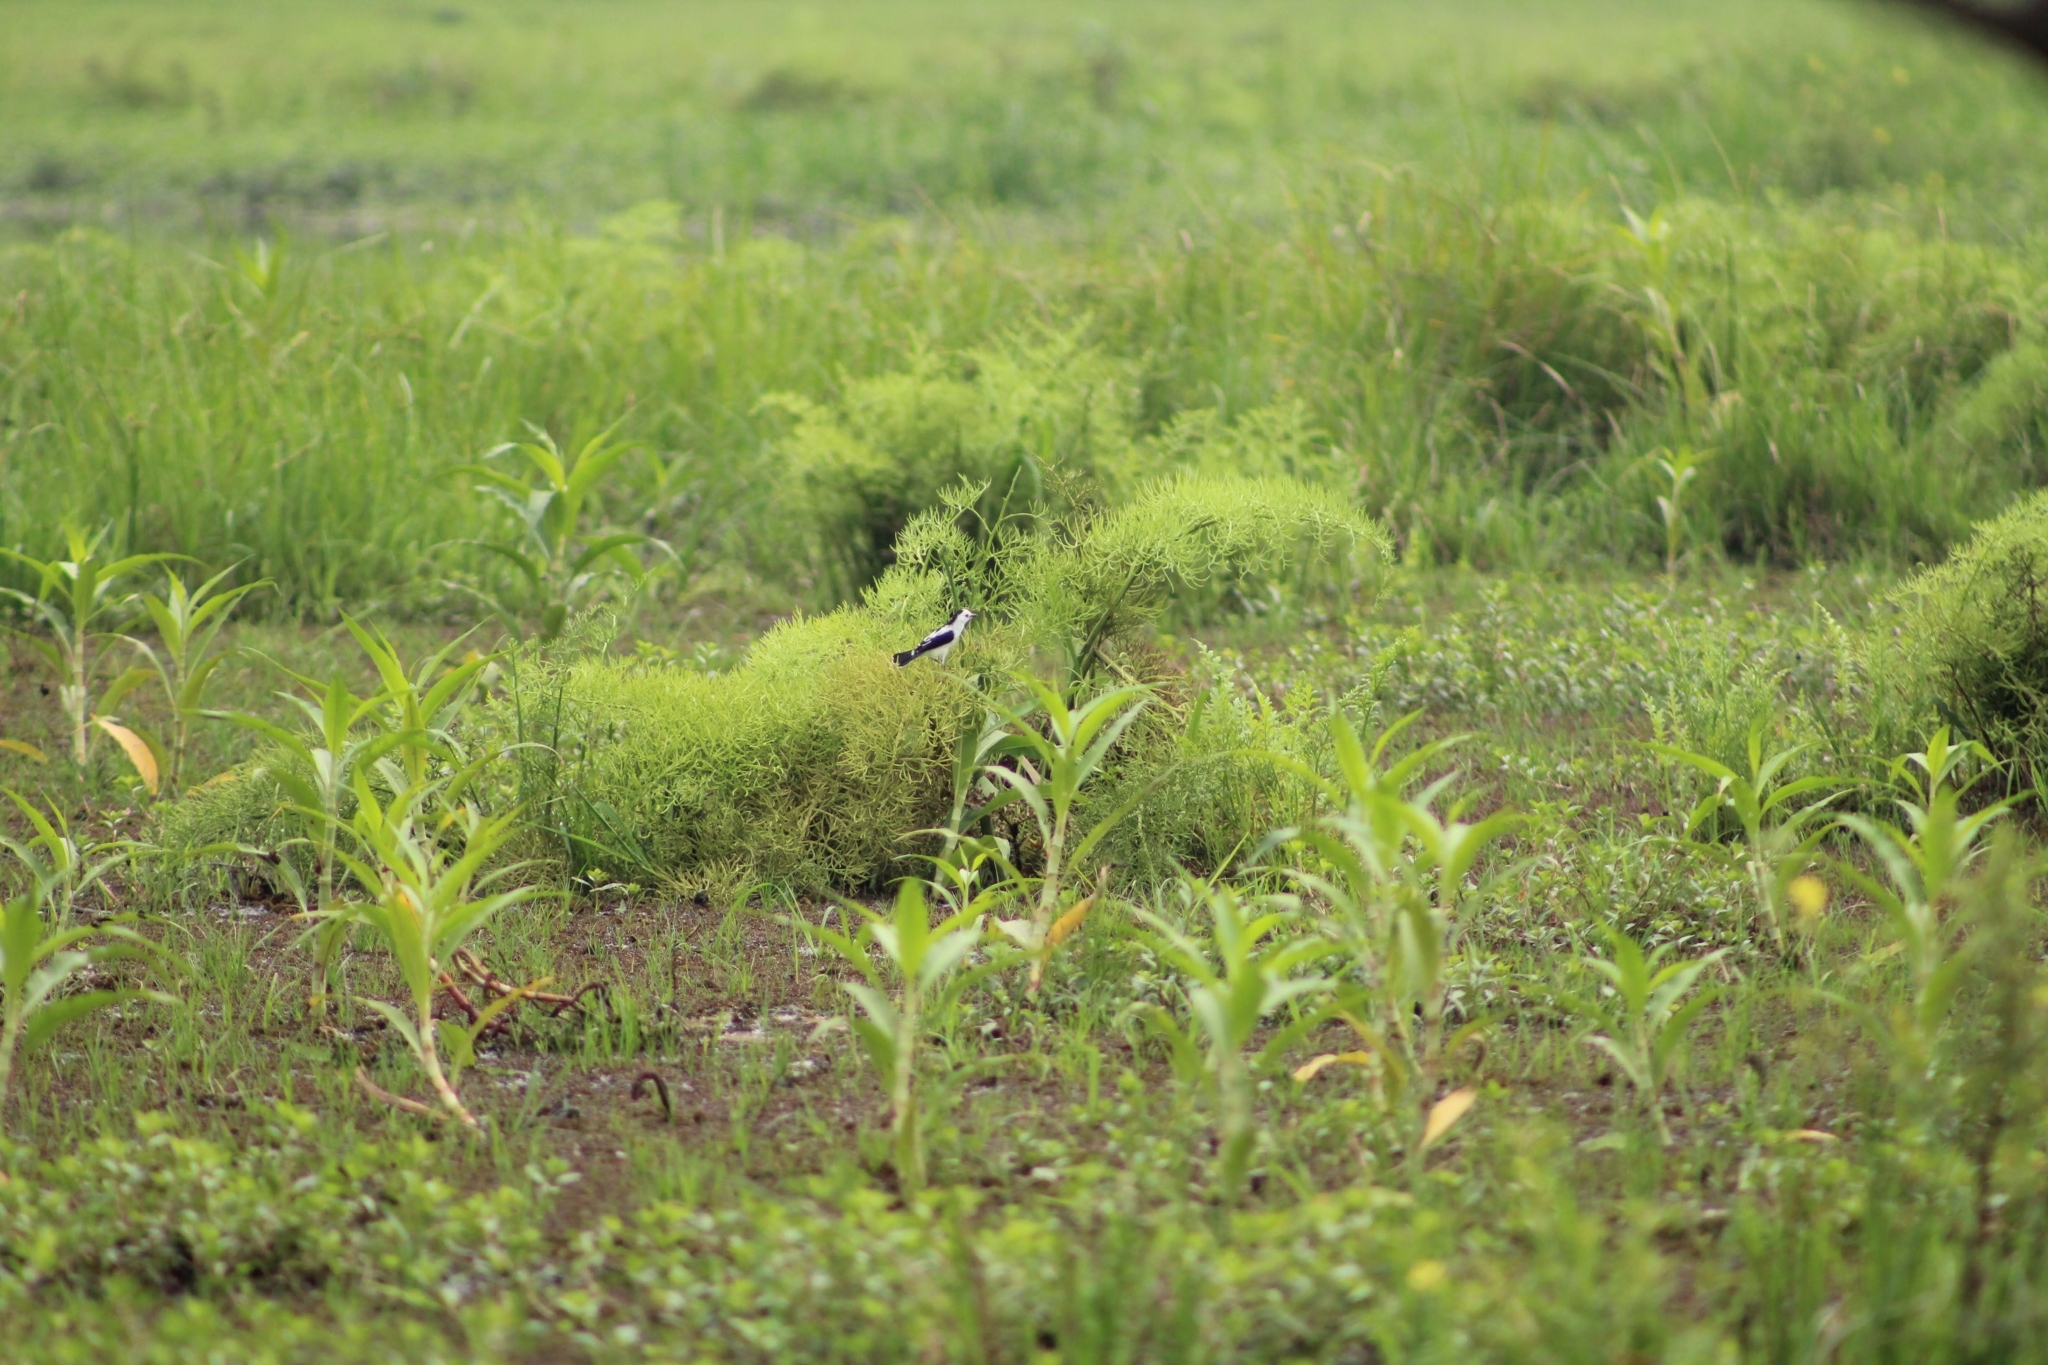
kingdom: Animalia
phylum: Chordata
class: Aves
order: Passeriformes
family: Tyrannidae
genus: Fluvicola
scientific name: Fluvicola pica
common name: Pied water-tyrant
